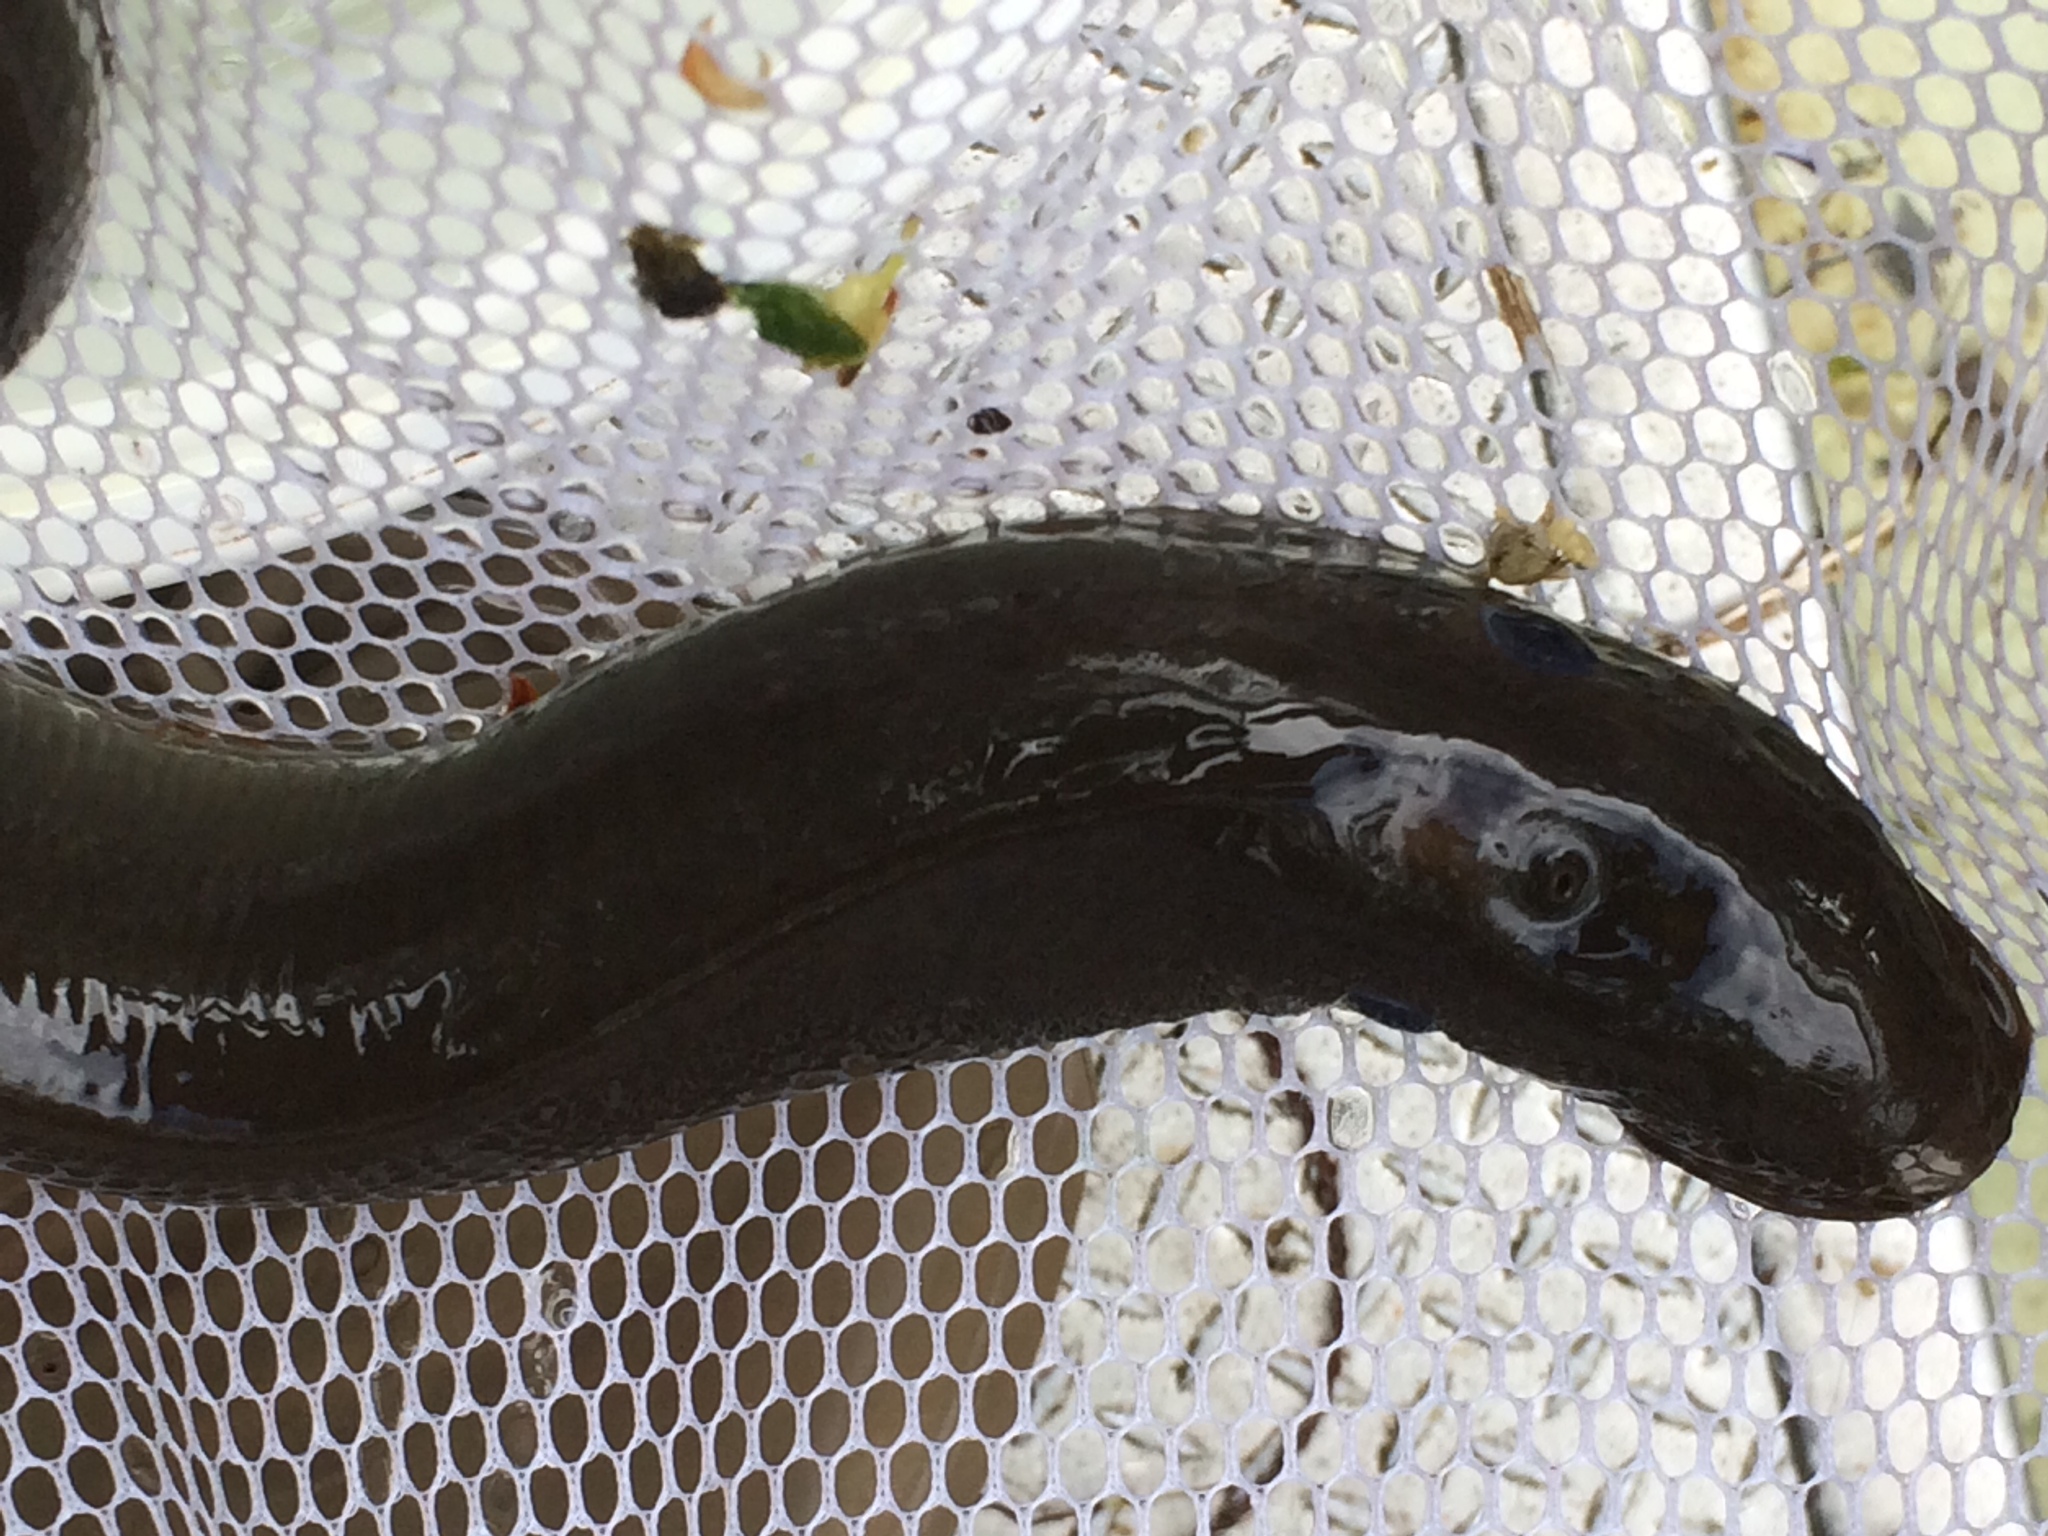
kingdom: Animalia
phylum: Chordata
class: Petromyzonti
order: Petromyzontiformes
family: Petromyzontidae
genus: Entosphenus
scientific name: Entosphenus tridentatus
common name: Pacific lamprey
